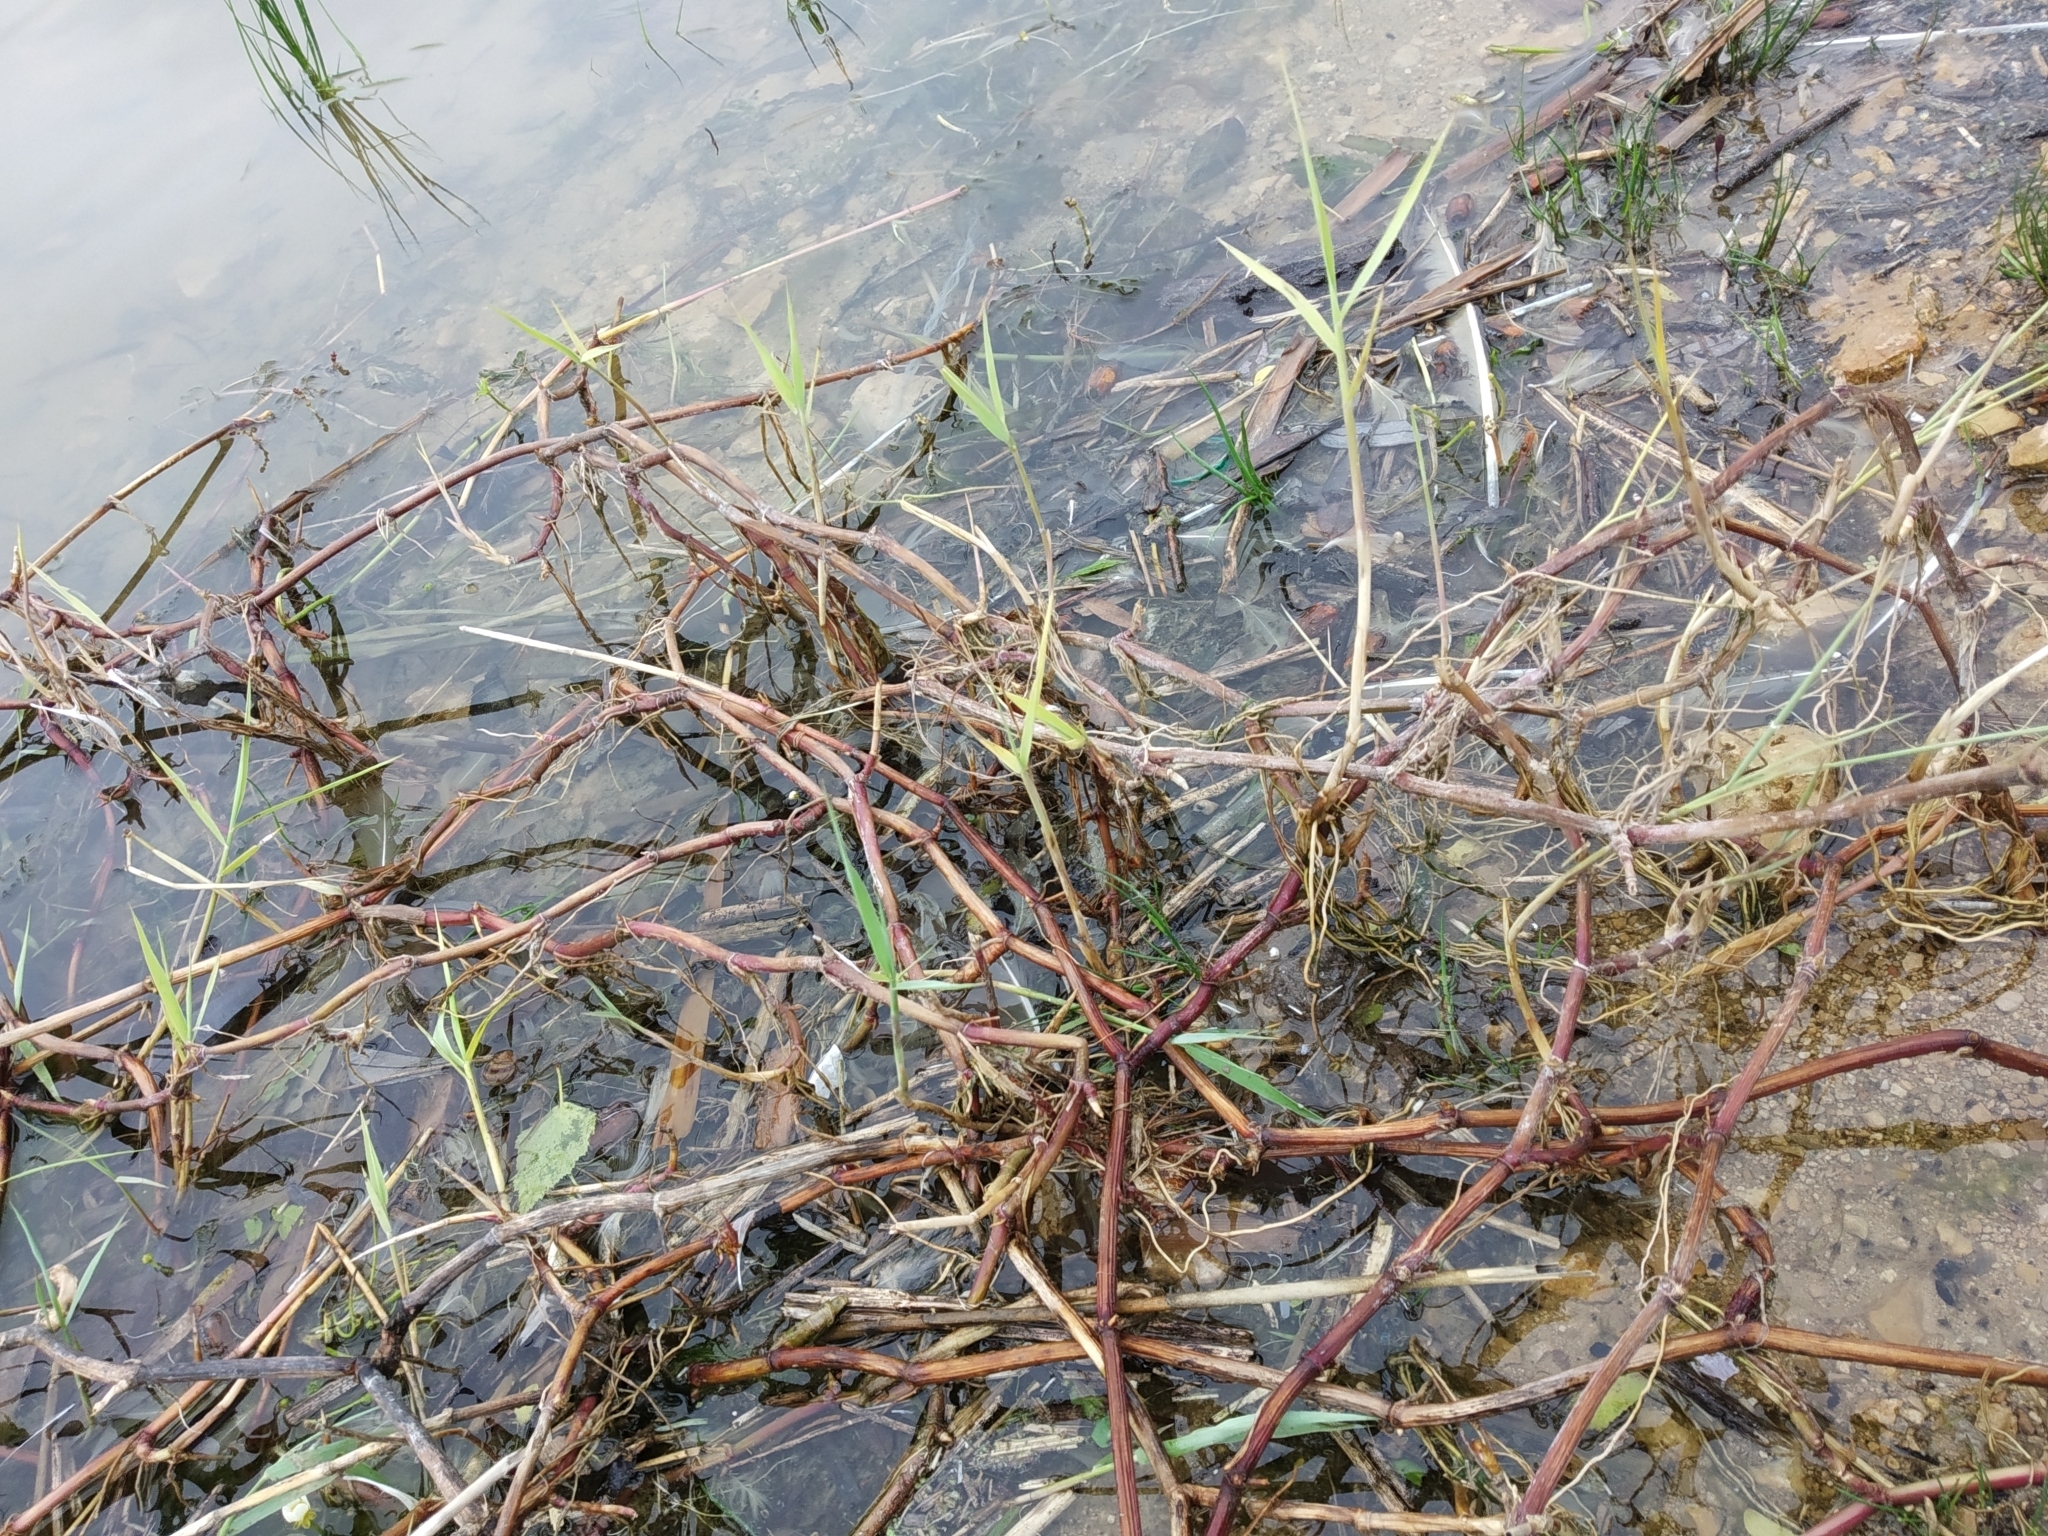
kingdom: Plantae
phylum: Tracheophyta
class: Liliopsida
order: Poales
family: Poaceae
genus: Glyceria
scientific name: Glyceria fluitans
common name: Floating sweet-grass
